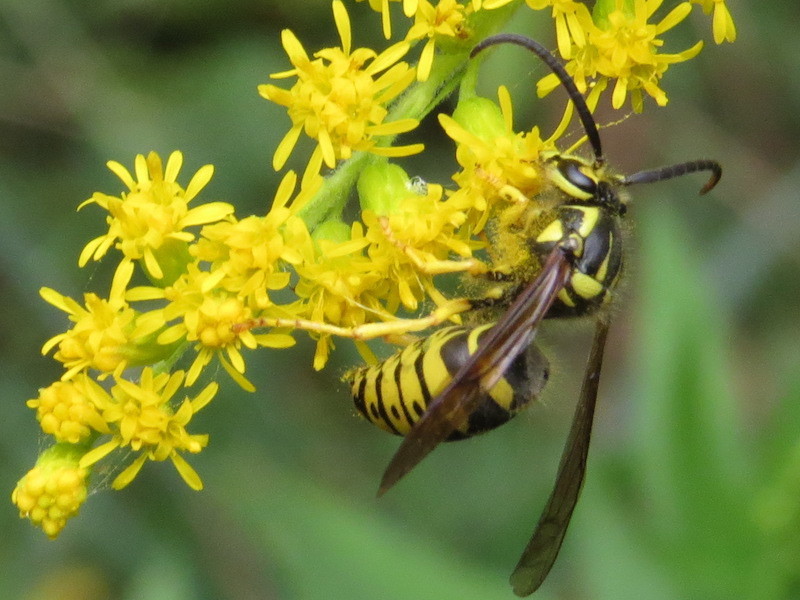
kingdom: Animalia
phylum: Arthropoda
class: Insecta
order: Hymenoptera
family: Vespidae
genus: Dolichovespula
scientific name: Dolichovespula arenaria
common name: Aerial yellowjacket
